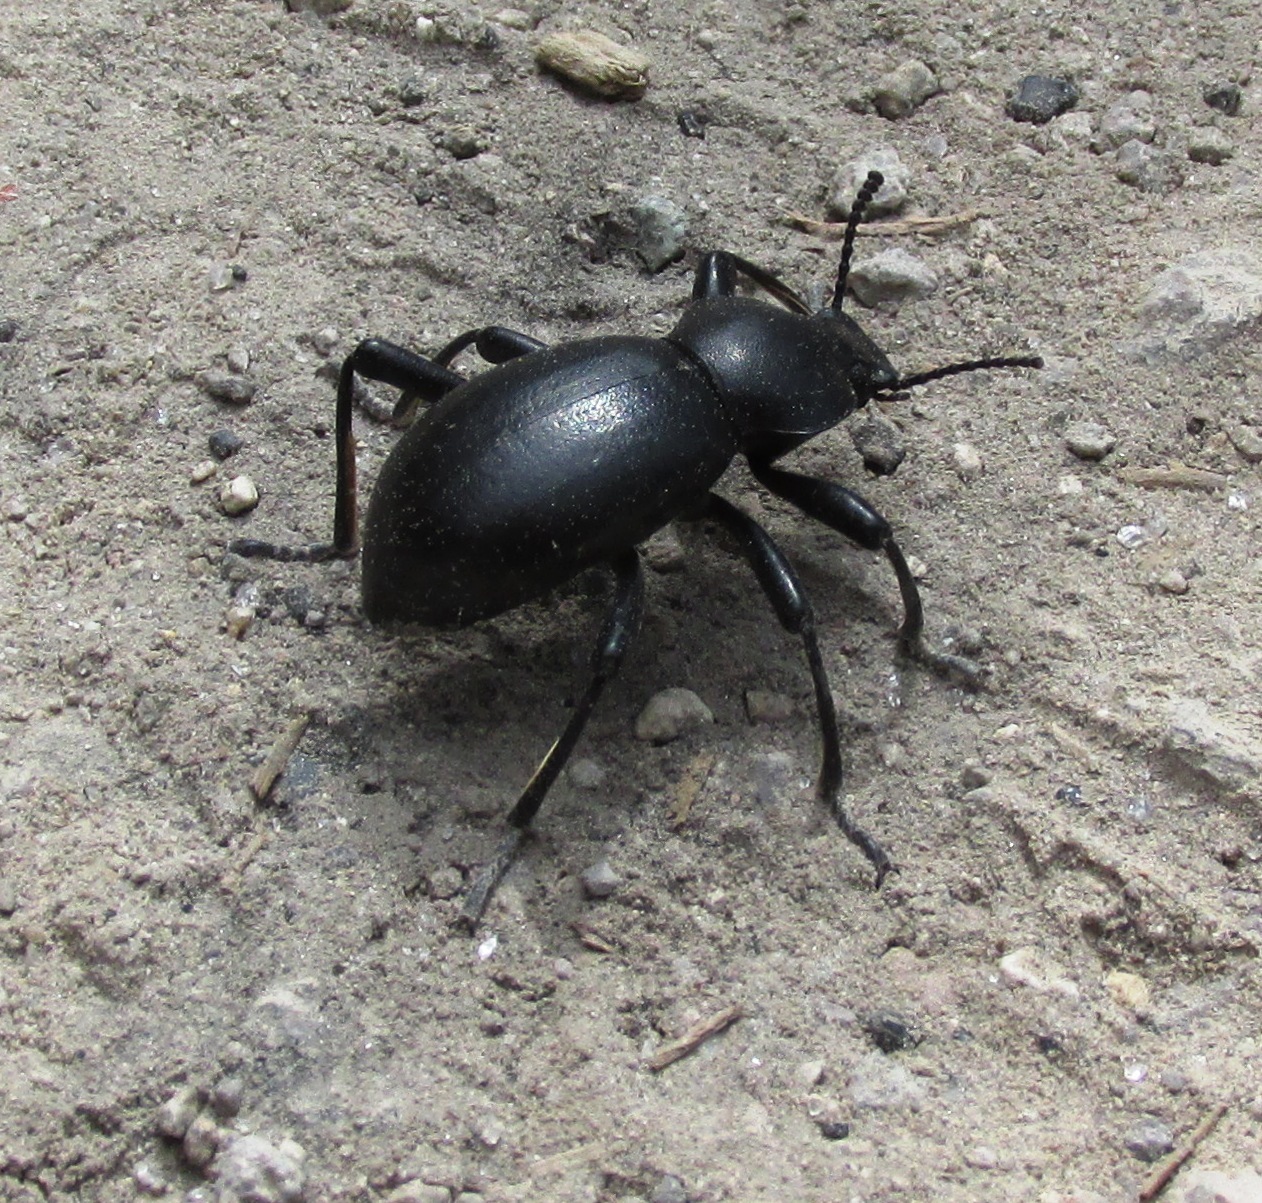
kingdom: Animalia
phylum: Arthropoda
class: Insecta
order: Coleoptera
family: Tenebrionidae
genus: Coelocnemis
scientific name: Coelocnemis dilaticollis
